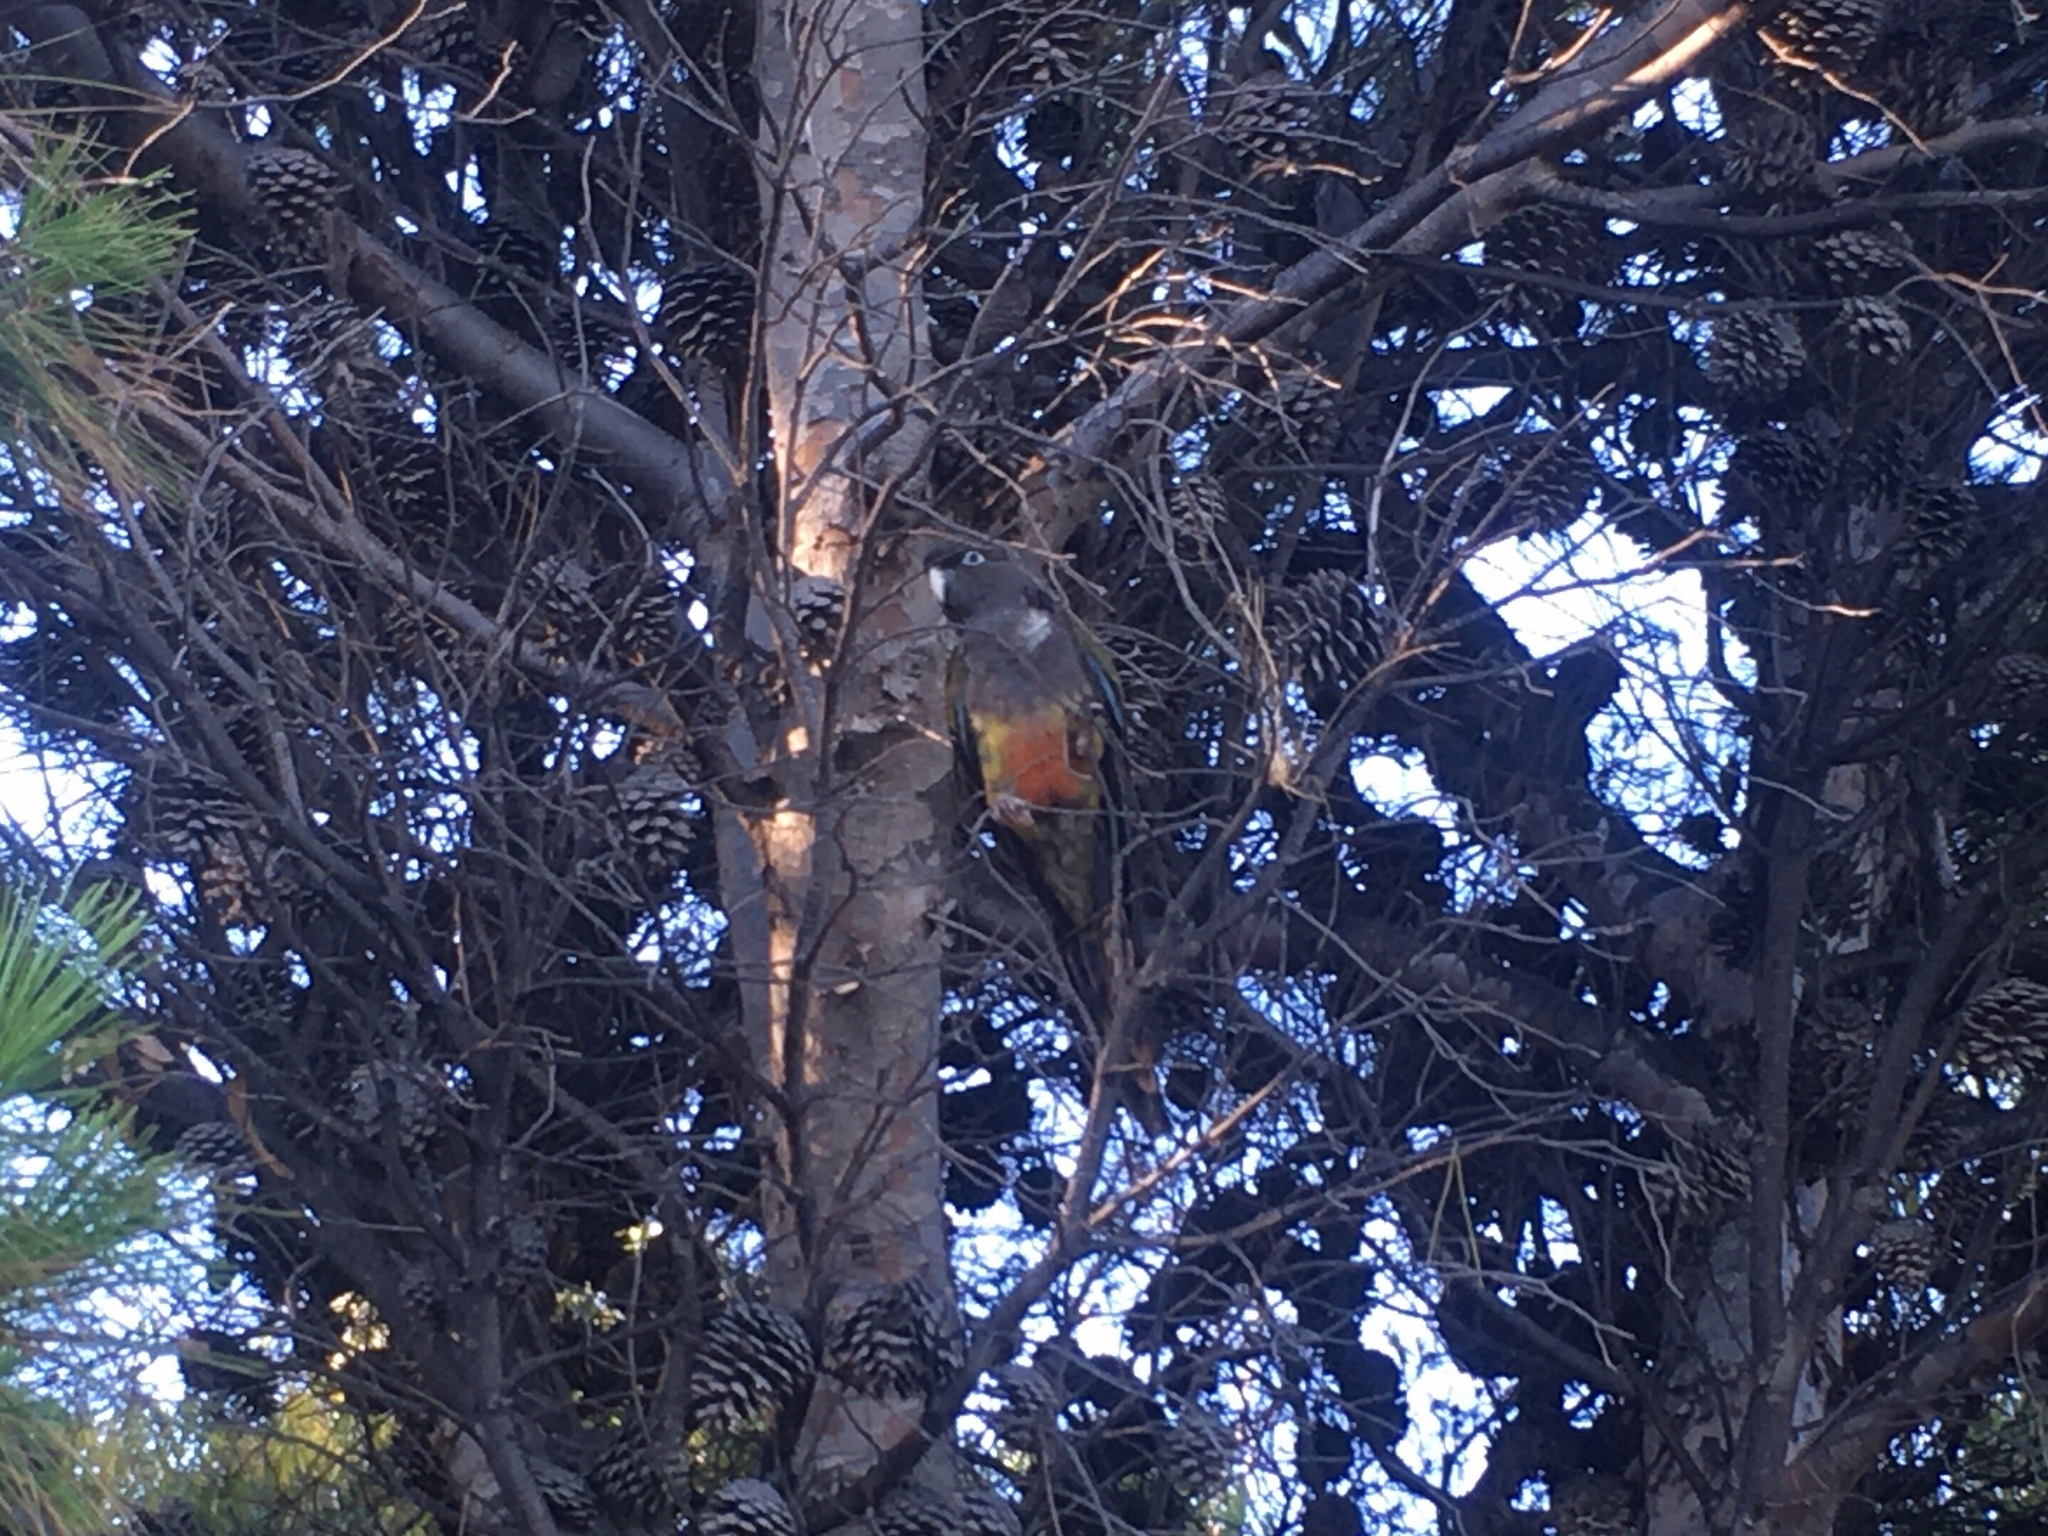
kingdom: Animalia
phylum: Chordata
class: Aves
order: Psittaciformes
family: Psittacidae
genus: Cyanoliseus
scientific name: Cyanoliseus patagonus
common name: Burrowing parrot
